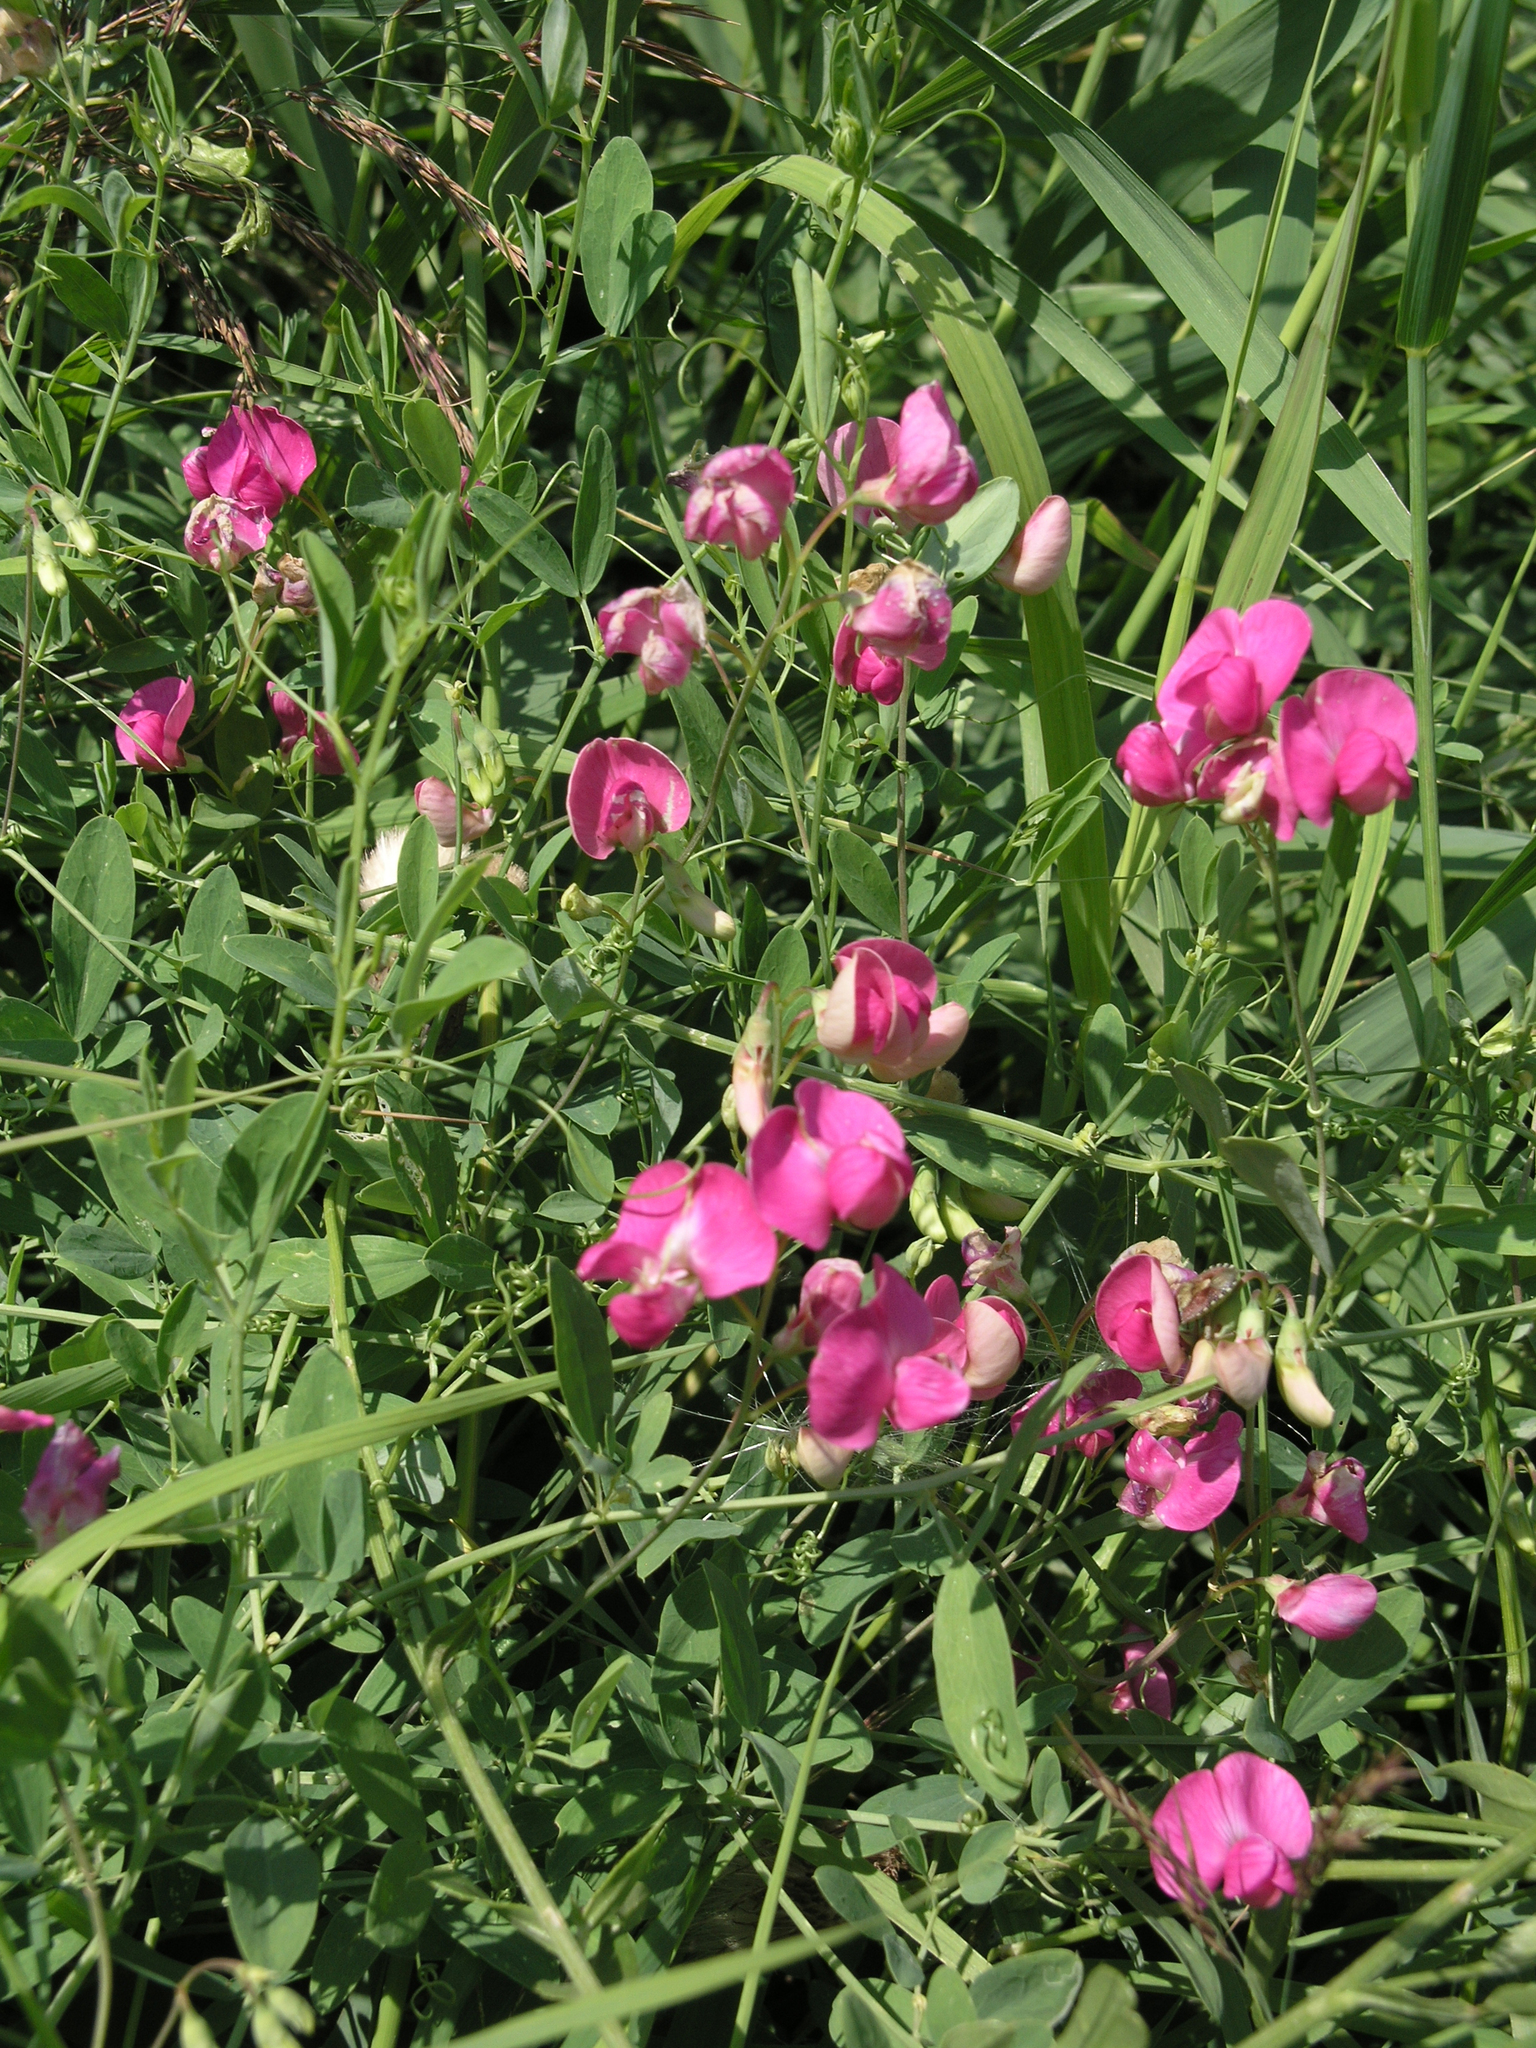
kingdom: Plantae
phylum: Tracheophyta
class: Magnoliopsida
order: Fabales
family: Fabaceae
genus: Lathyrus
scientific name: Lathyrus tuberosus
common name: Tuberous pea
